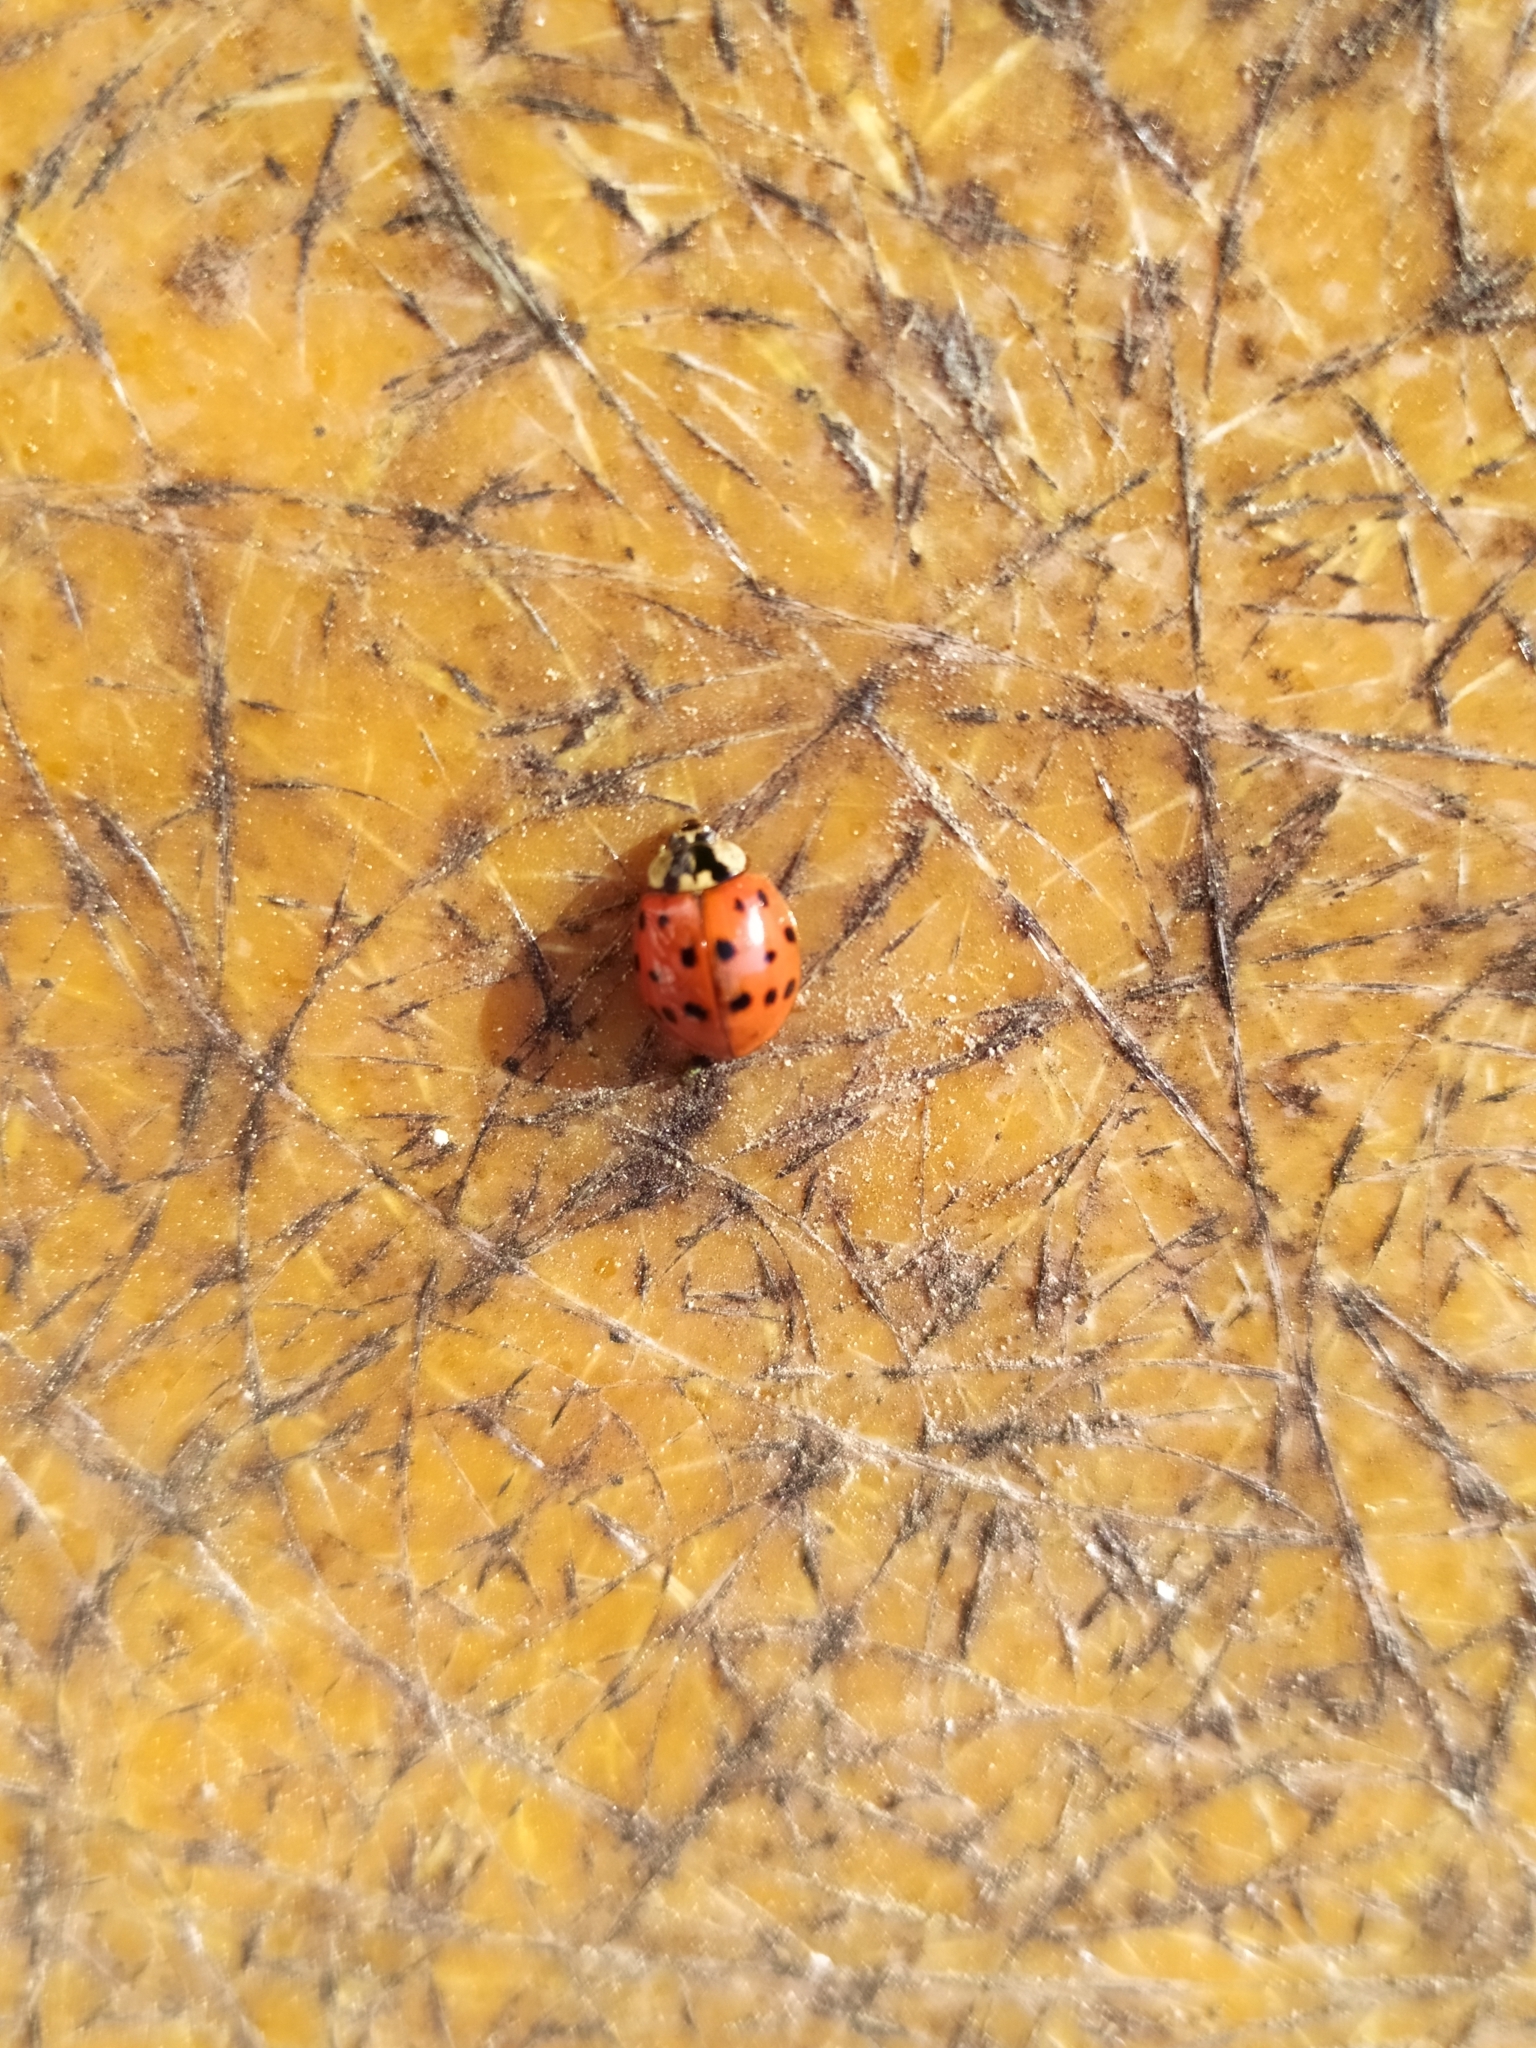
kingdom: Animalia
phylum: Arthropoda
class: Insecta
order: Coleoptera
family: Coccinellidae
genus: Harmonia
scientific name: Harmonia axyridis
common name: Harlequin ladybird
